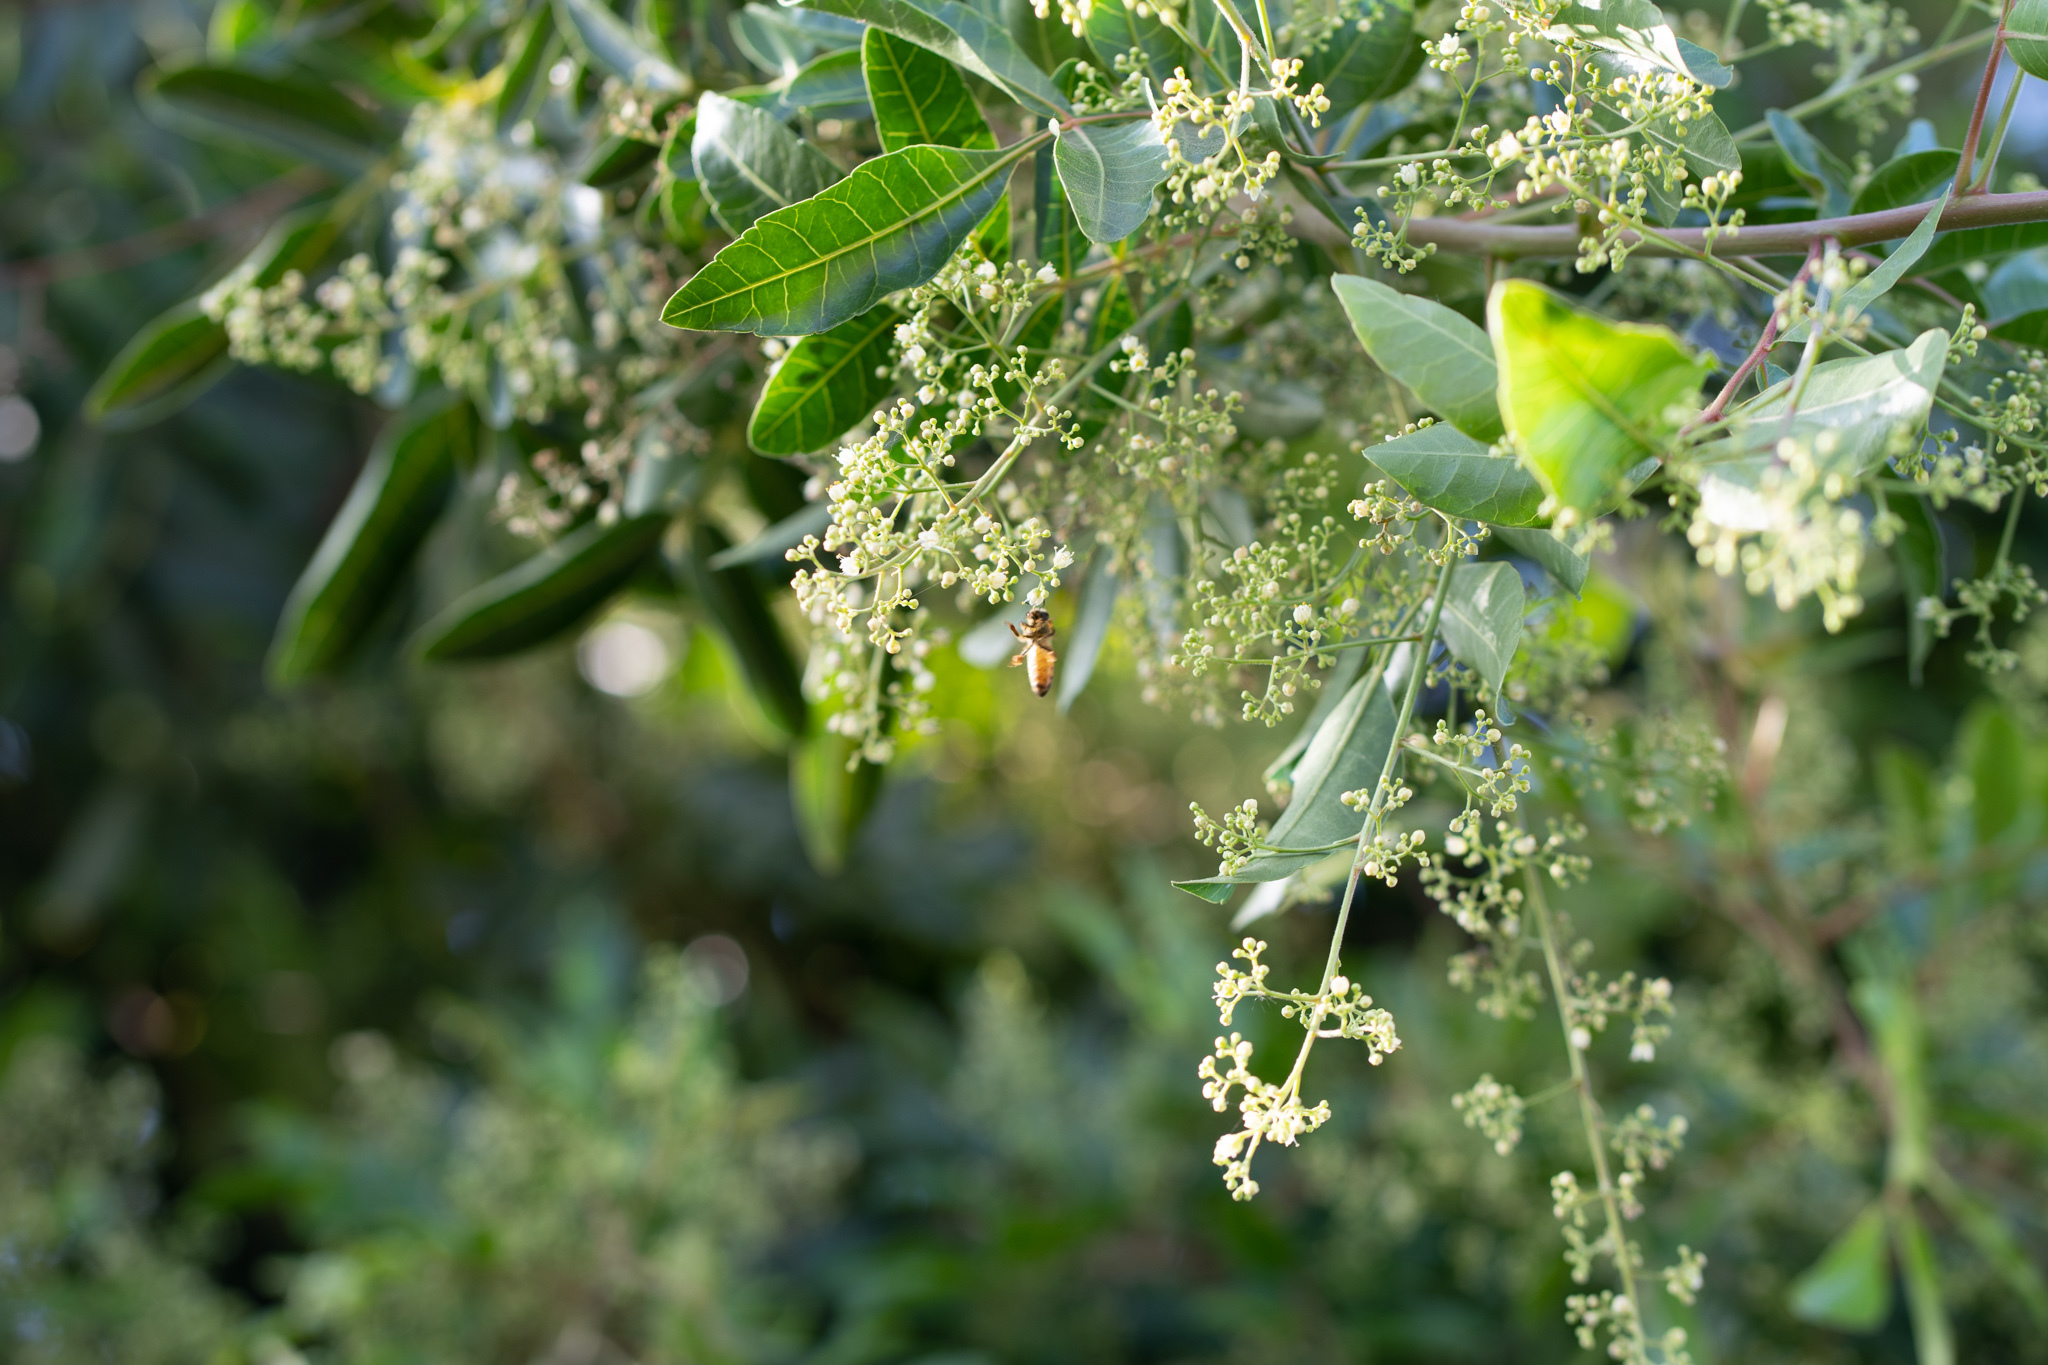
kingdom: Animalia
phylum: Arthropoda
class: Insecta
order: Hymenoptera
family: Apidae
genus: Apis
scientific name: Apis mellifera
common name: Honey bee
